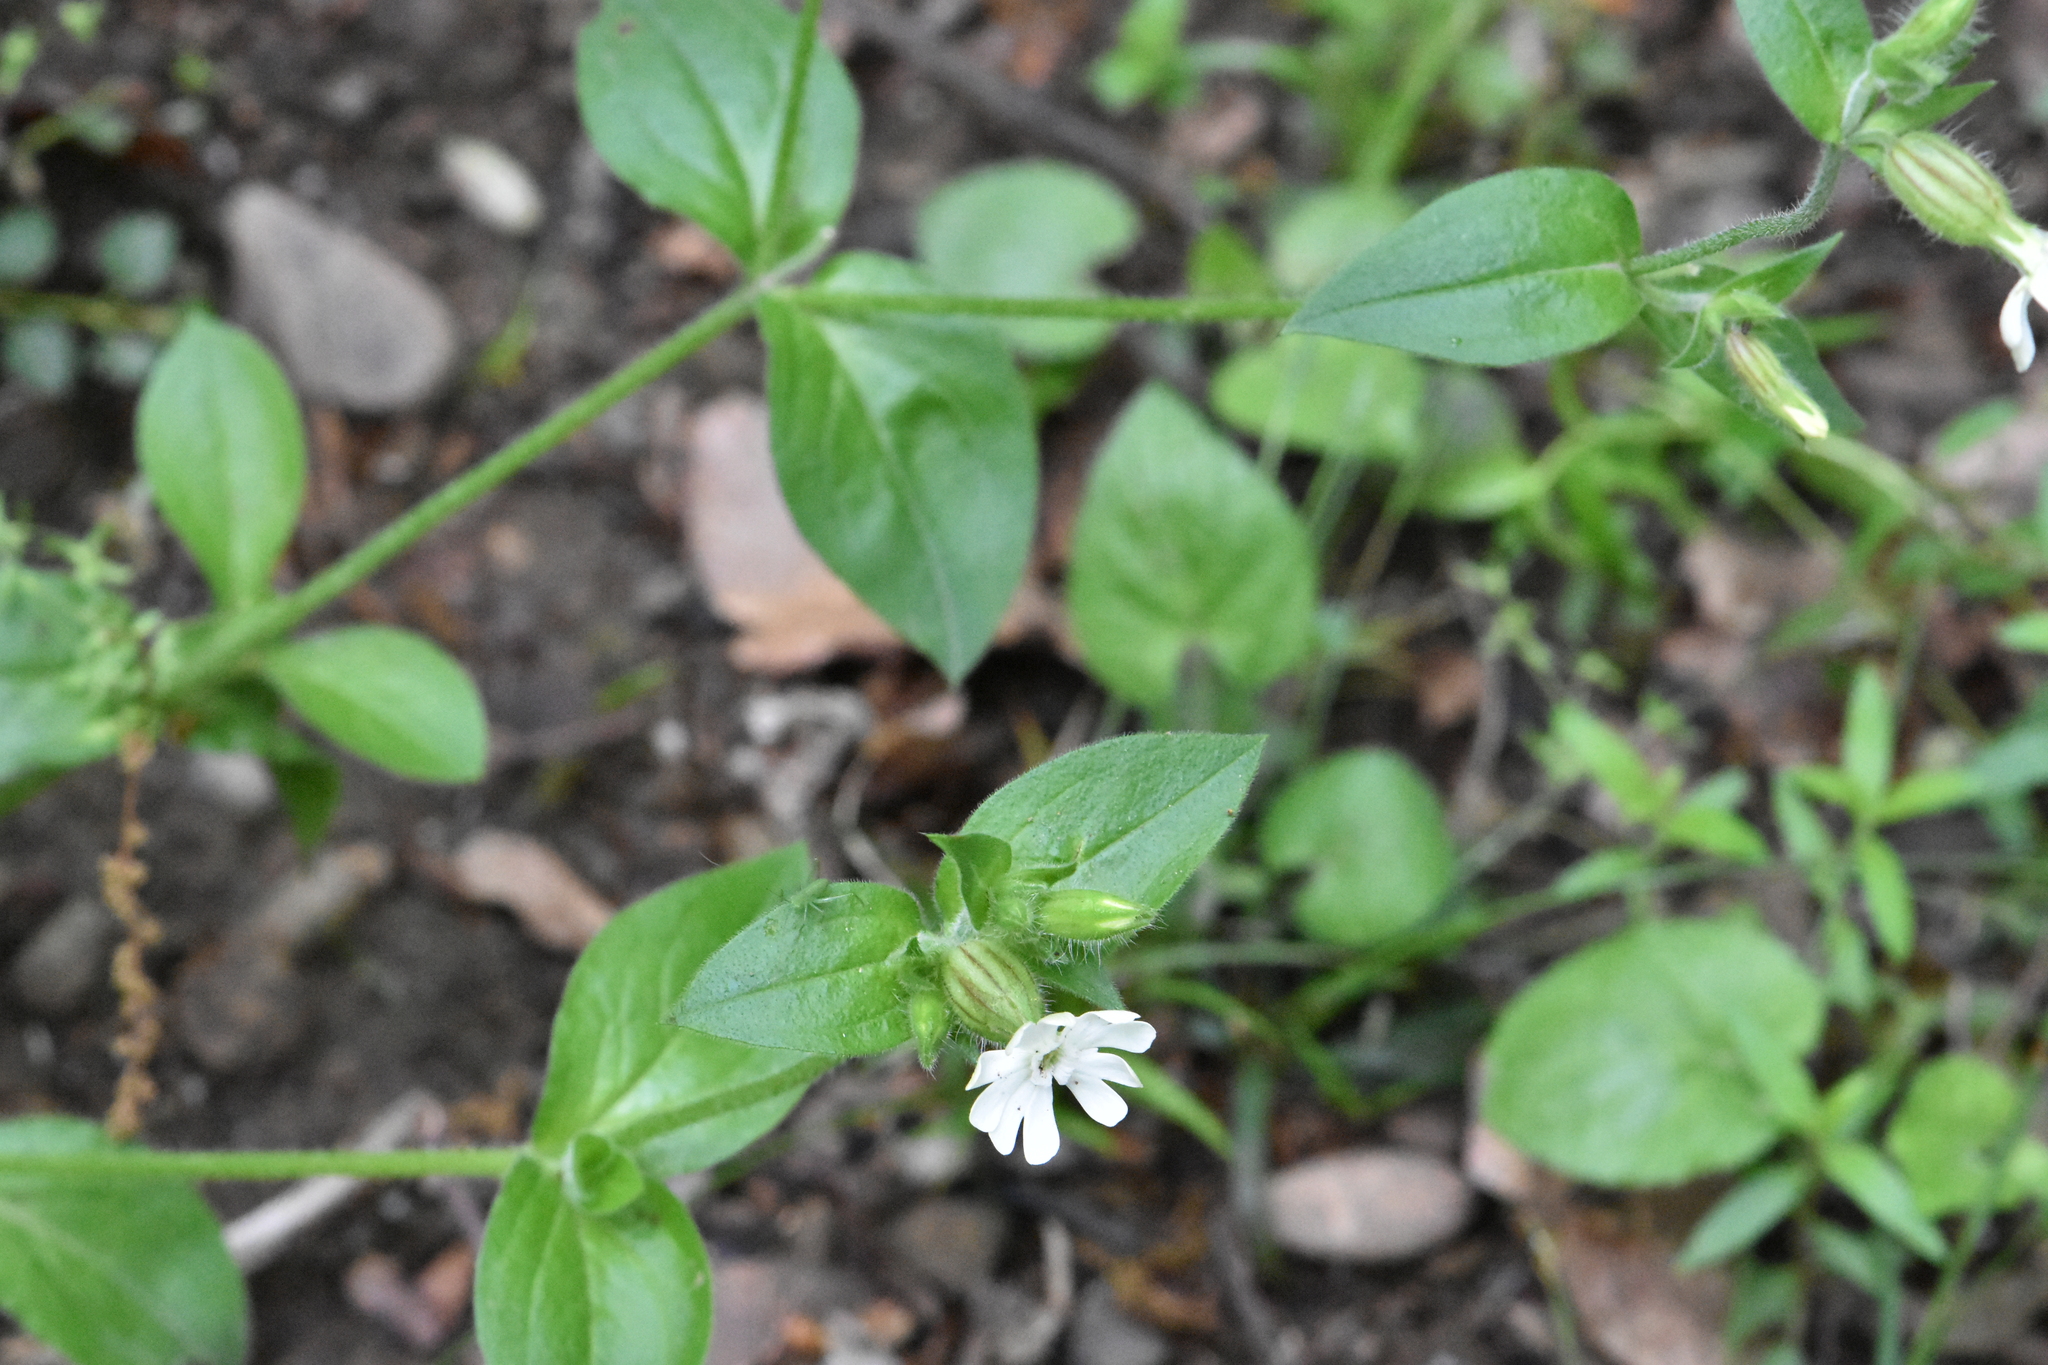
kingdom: Plantae
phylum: Tracheophyta
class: Magnoliopsida
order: Caryophyllales
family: Caryophyllaceae
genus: Silene
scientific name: Silene latifolia
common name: White campion
